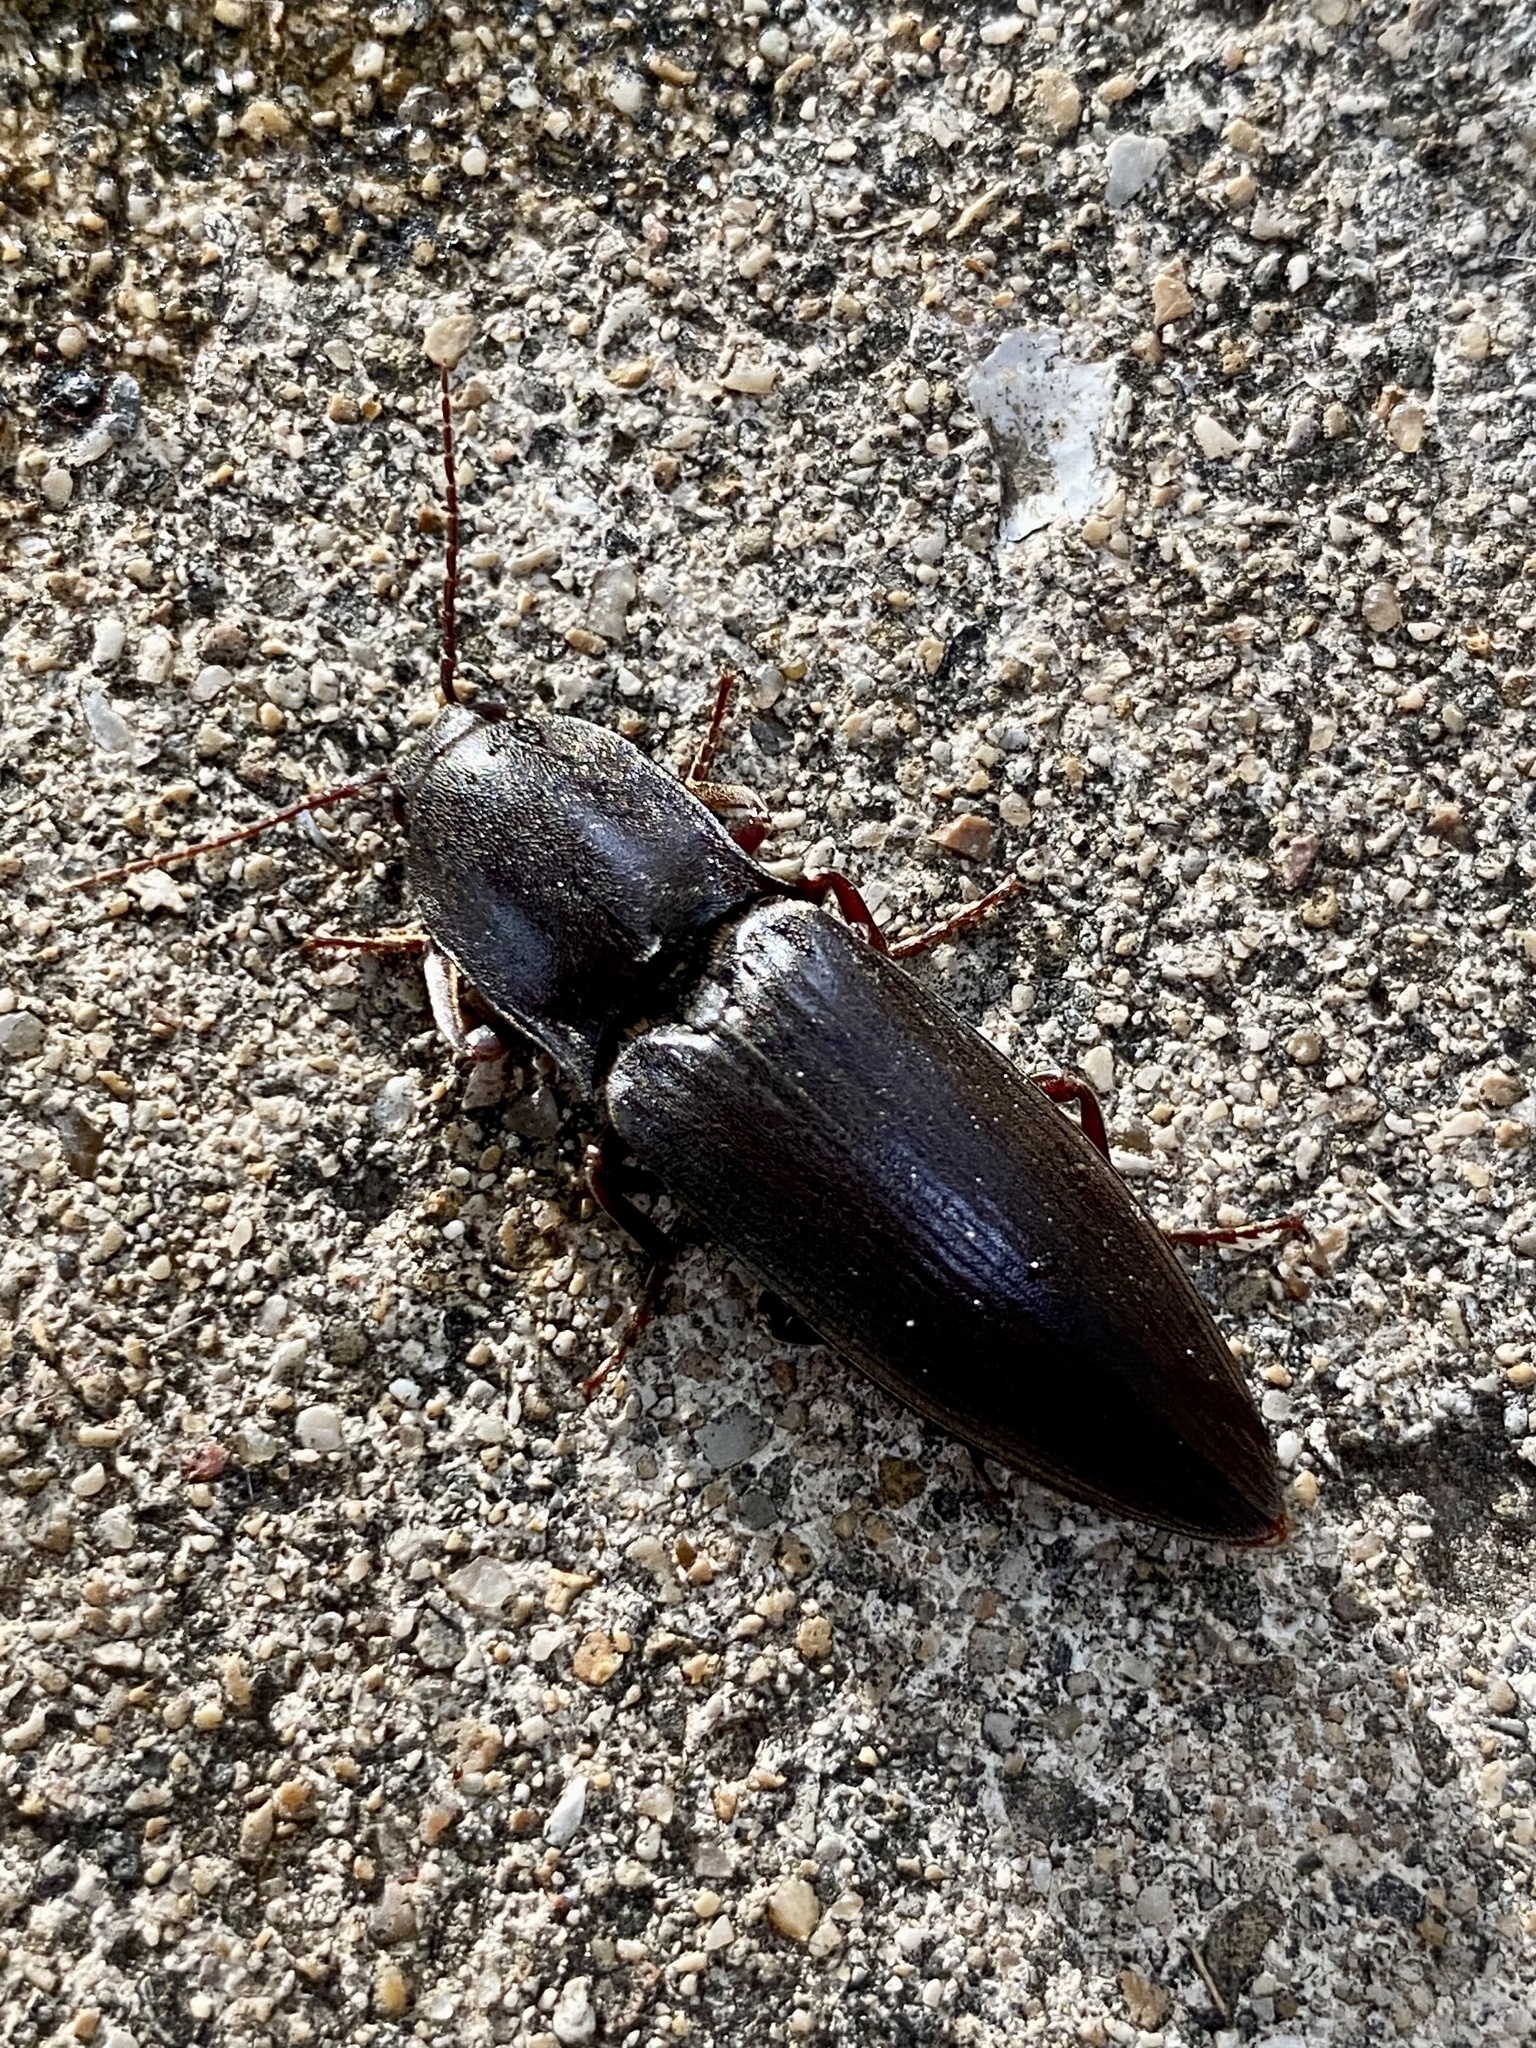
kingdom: Animalia
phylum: Arthropoda
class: Insecta
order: Coleoptera
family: Elateridae
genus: Lanelater
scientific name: Lanelater
